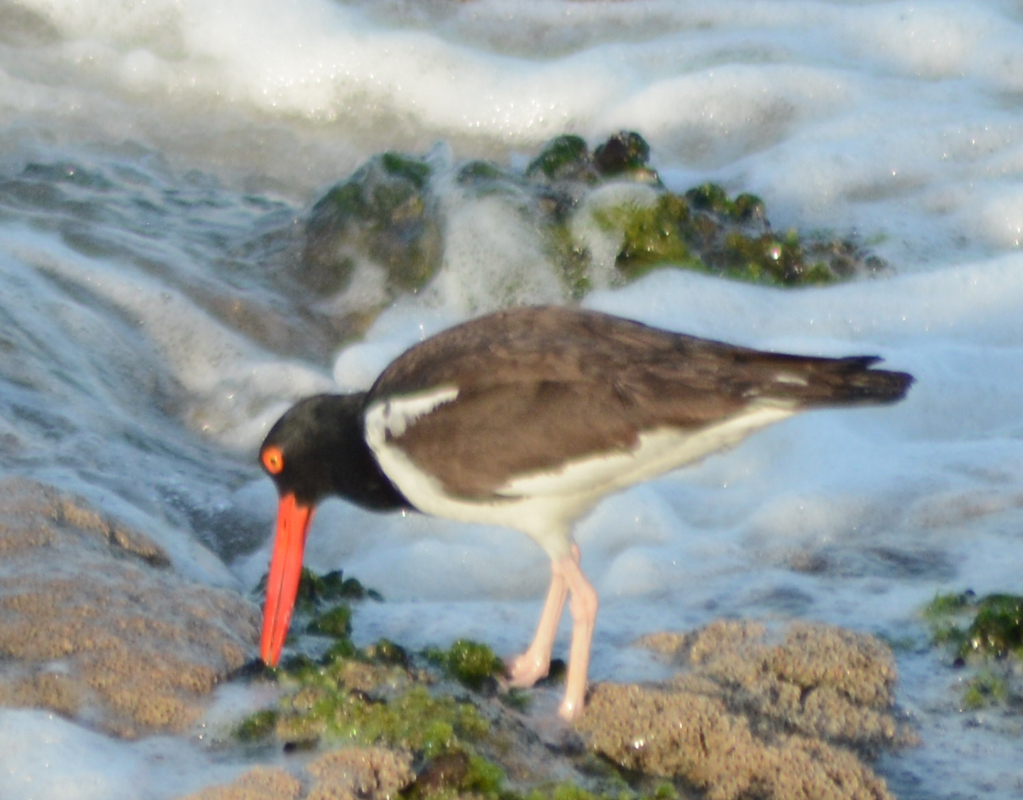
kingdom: Animalia
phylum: Chordata
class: Aves
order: Charadriiformes
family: Haematopodidae
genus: Haematopus
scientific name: Haematopus palliatus
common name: American oystercatcher
